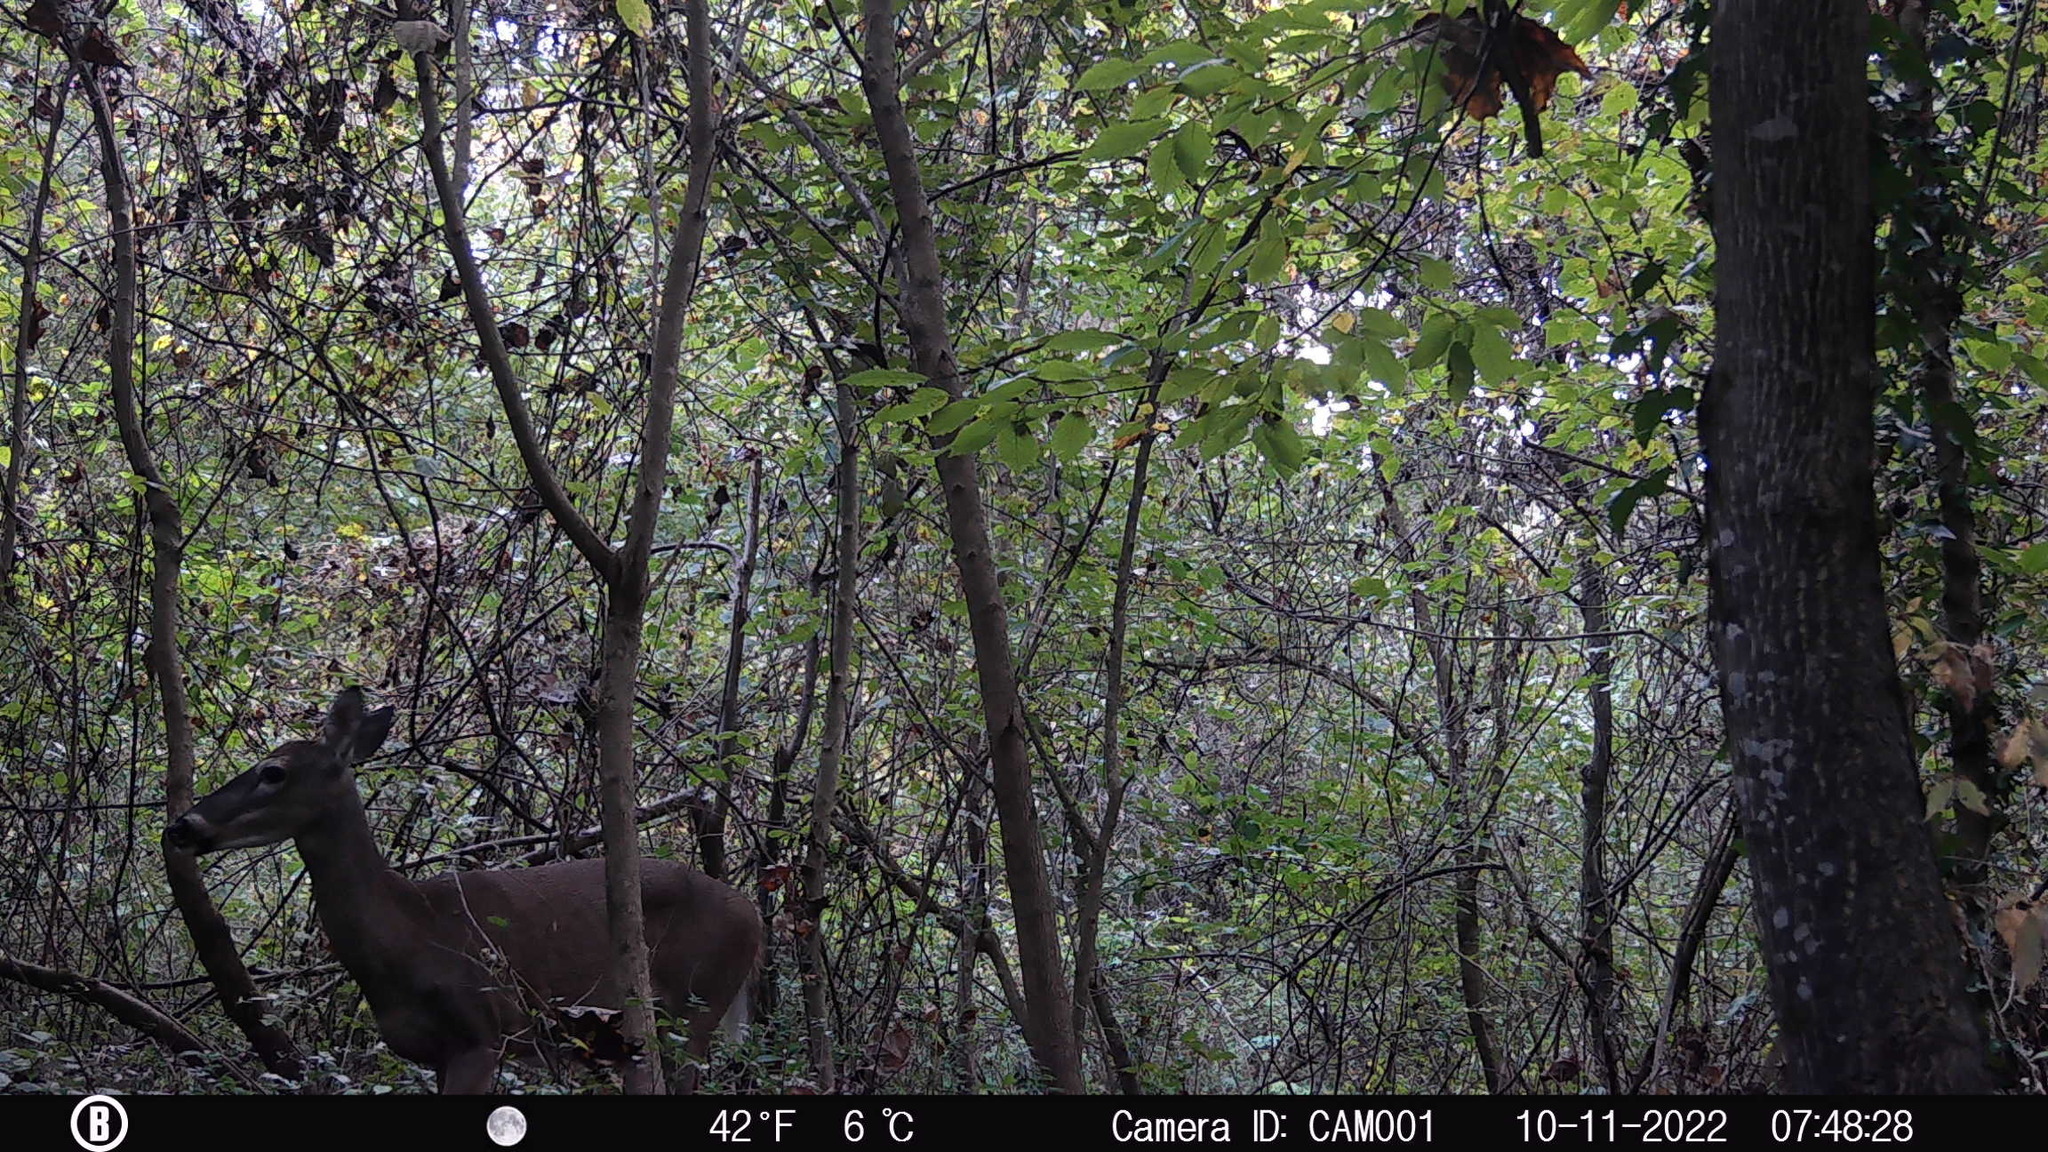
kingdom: Animalia
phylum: Chordata
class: Mammalia
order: Artiodactyla
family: Cervidae
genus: Odocoileus
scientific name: Odocoileus virginianus
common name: White-tailed deer
